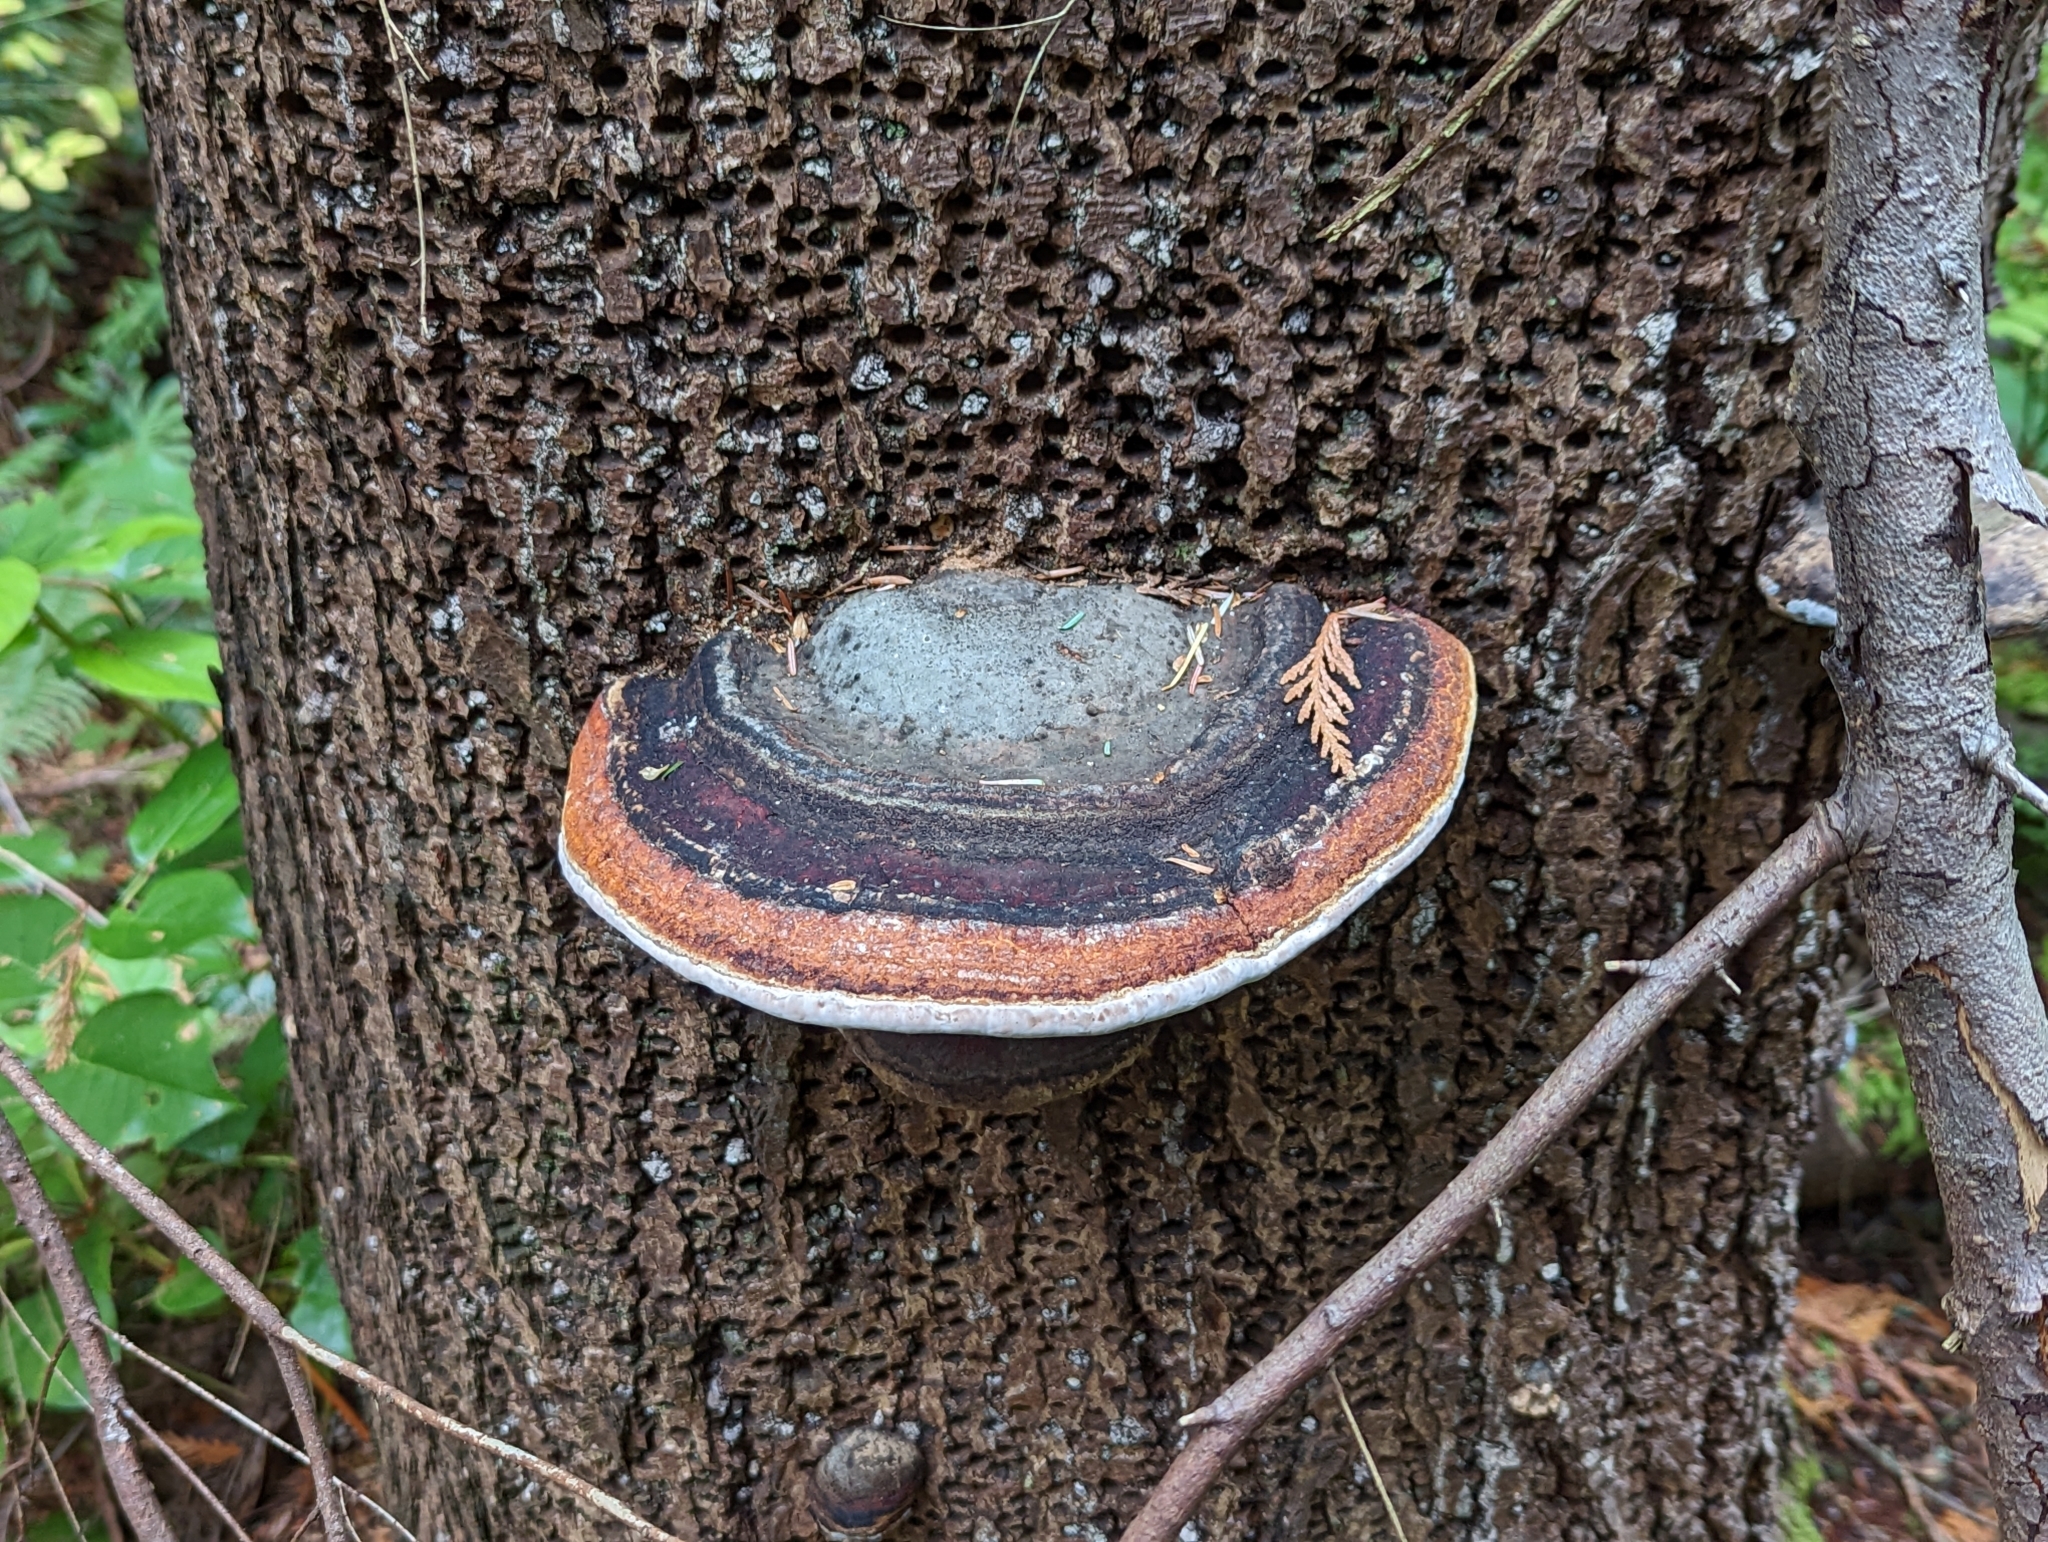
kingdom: Fungi
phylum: Basidiomycota
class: Agaricomycetes
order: Polyporales
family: Fomitopsidaceae
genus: Fomitopsis
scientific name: Fomitopsis mounceae
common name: Northern red belt
